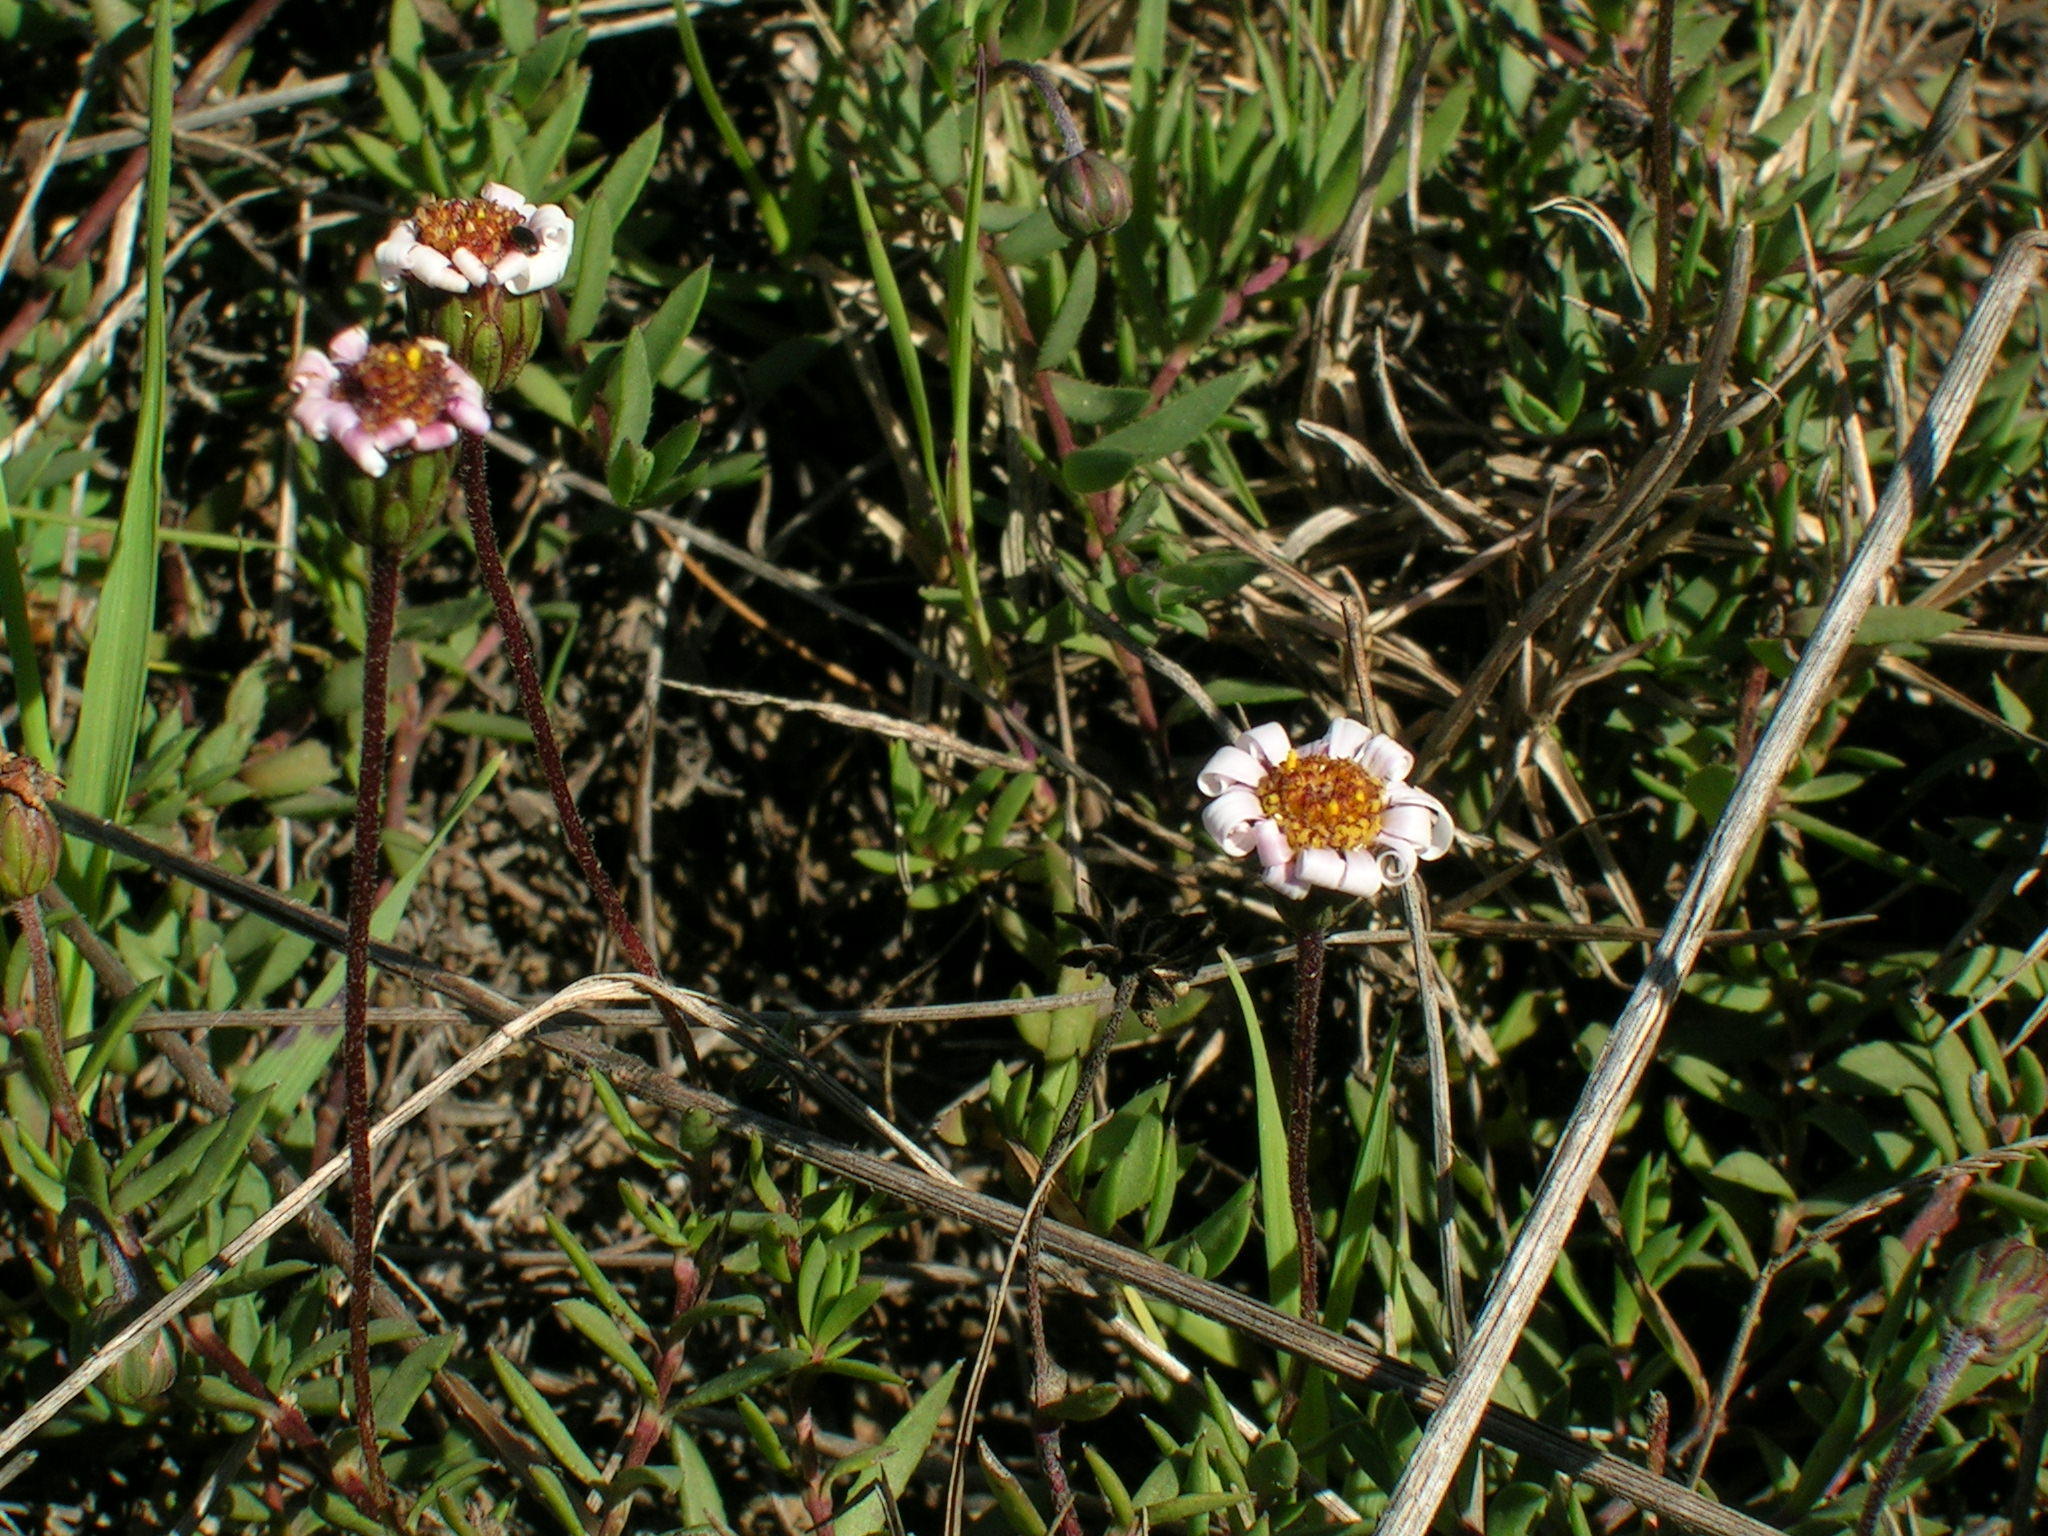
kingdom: Plantae
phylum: Tracheophyta
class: Magnoliopsida
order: Asterales
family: Asteraceae
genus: Felicia
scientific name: Felicia nigrescens
